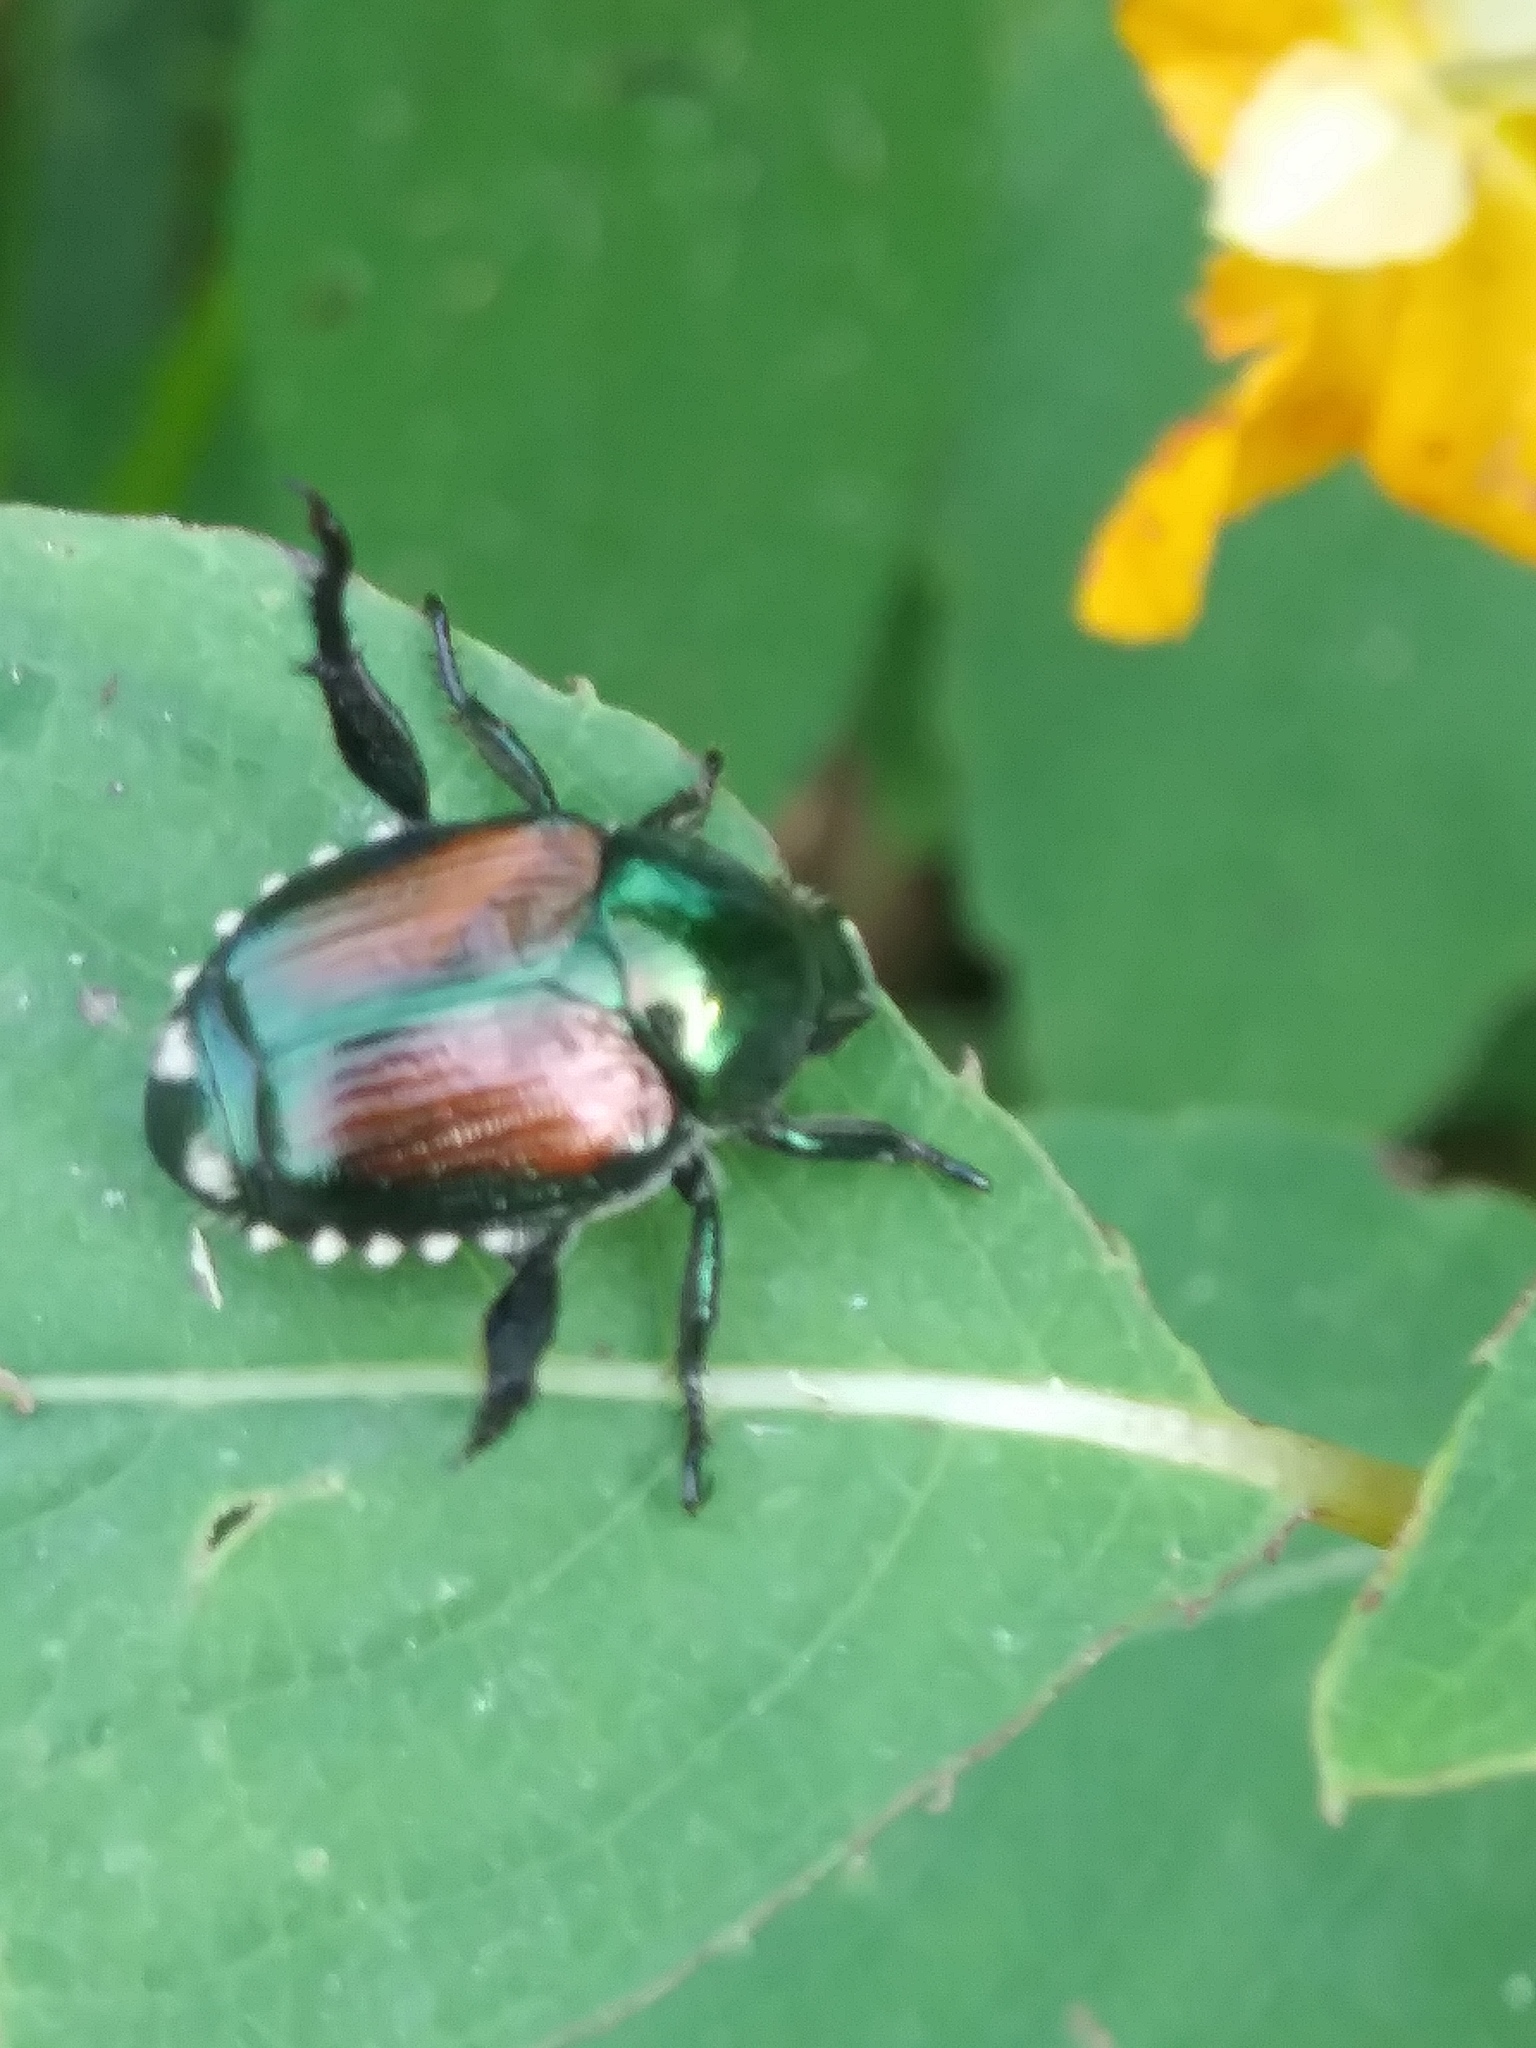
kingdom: Animalia
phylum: Arthropoda
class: Insecta
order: Coleoptera
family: Scarabaeidae
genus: Popillia
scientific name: Popillia japonica
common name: Japanese beetle
